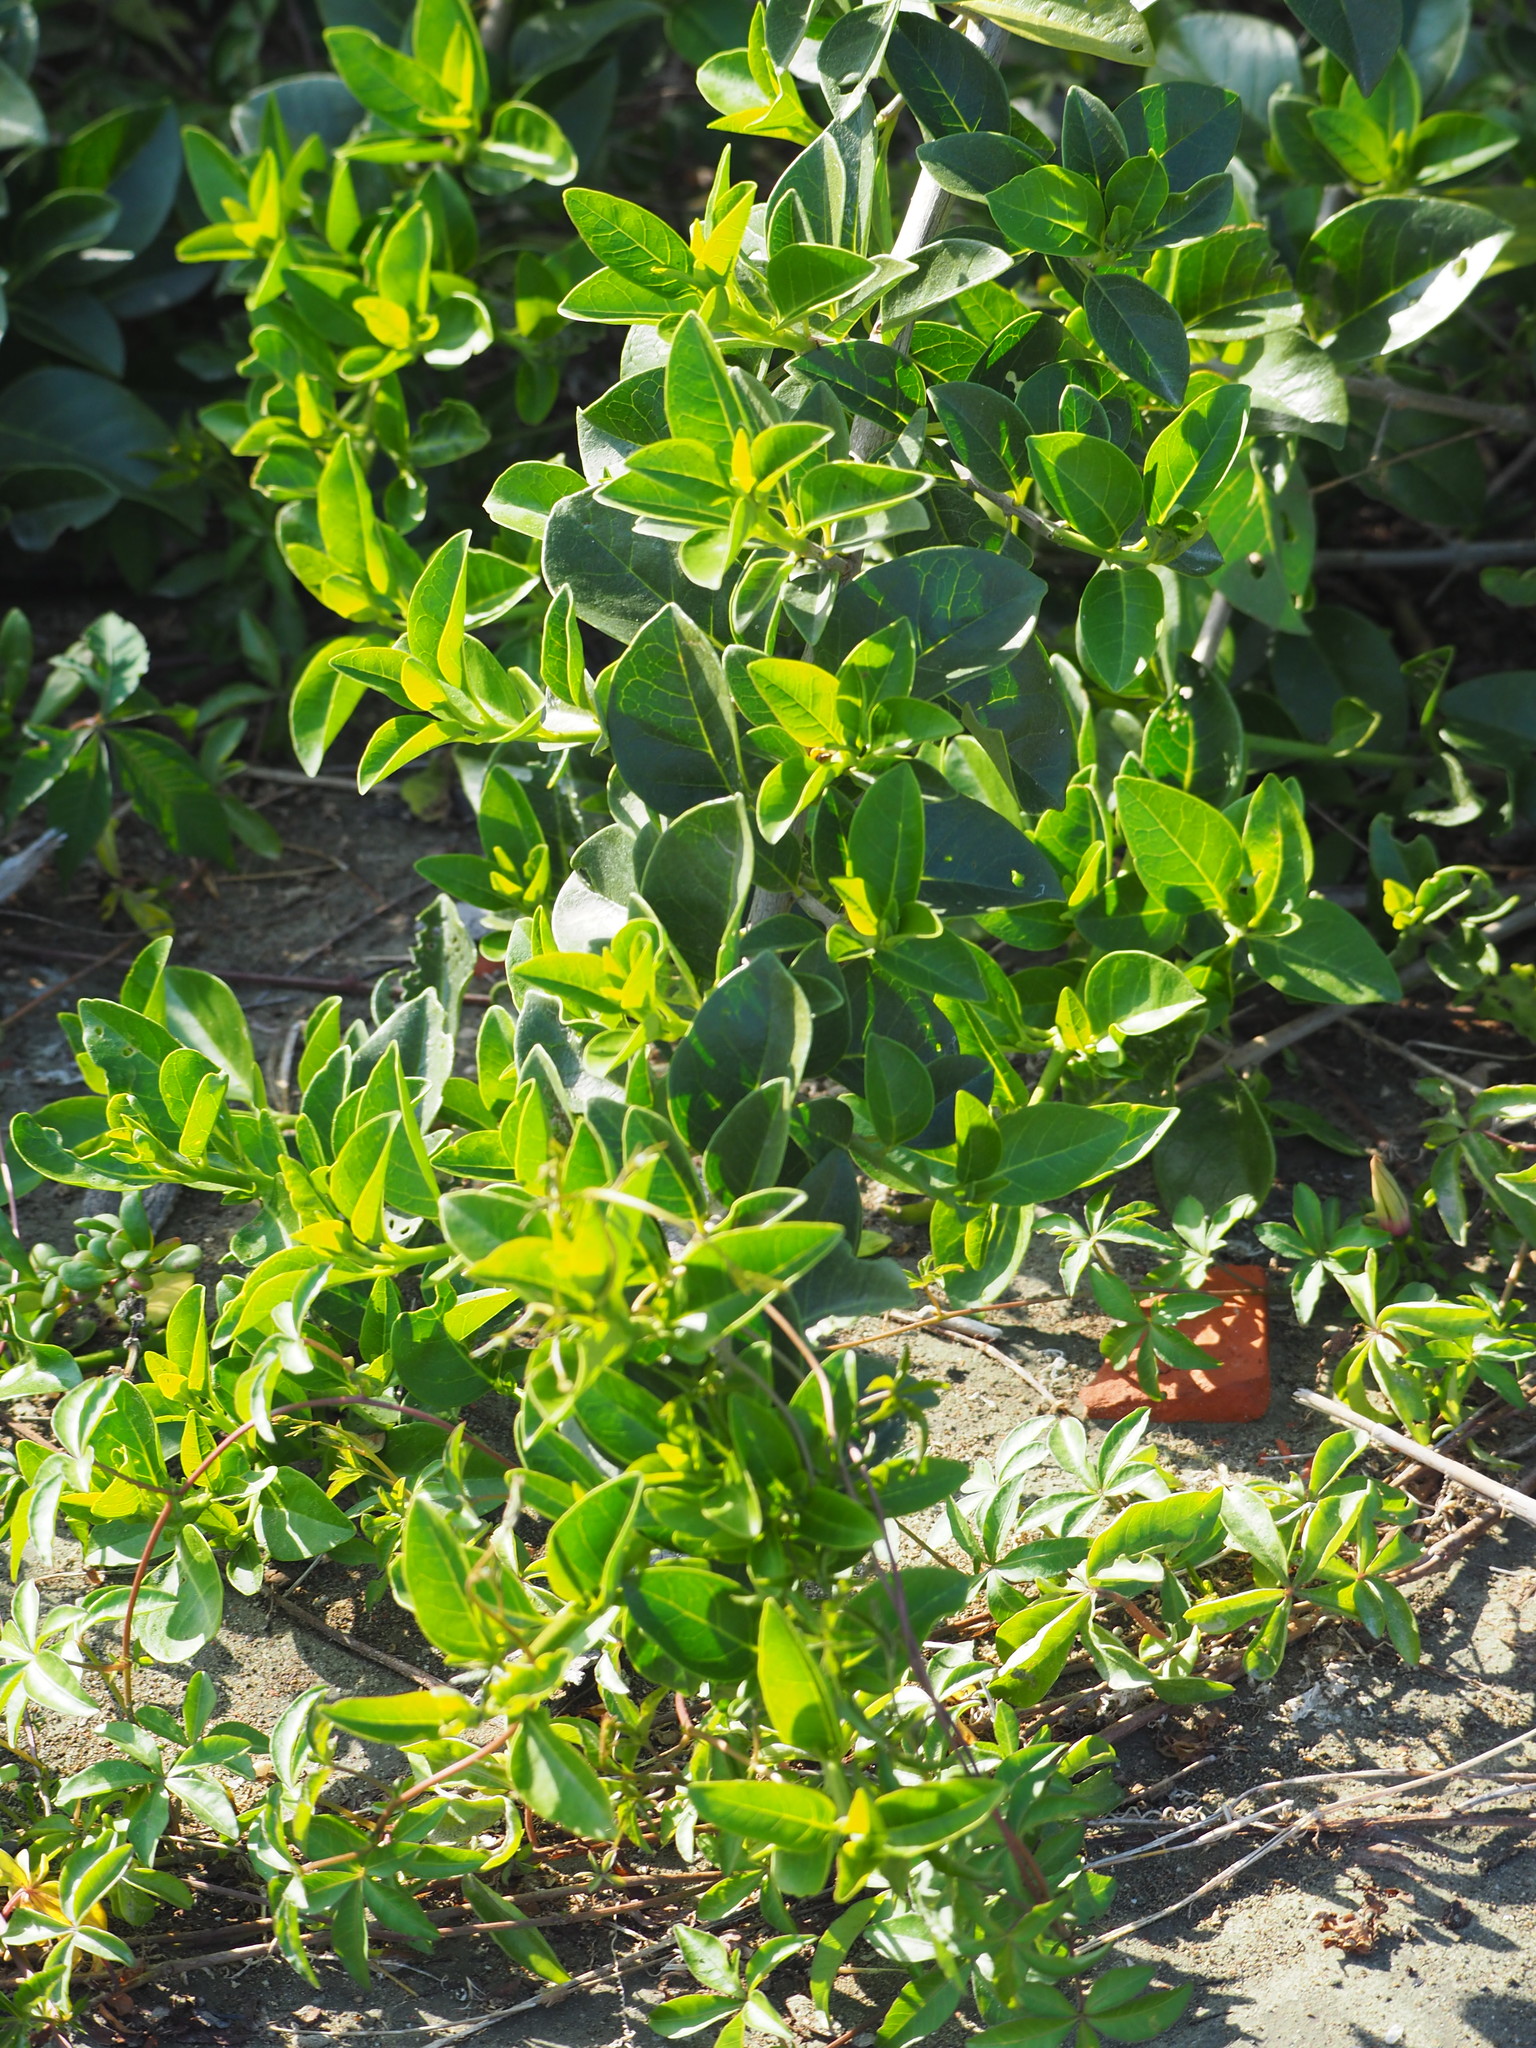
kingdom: Plantae
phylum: Tracheophyta
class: Magnoliopsida
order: Lamiales
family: Lamiaceae
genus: Volkameria
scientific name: Volkameria inermis
